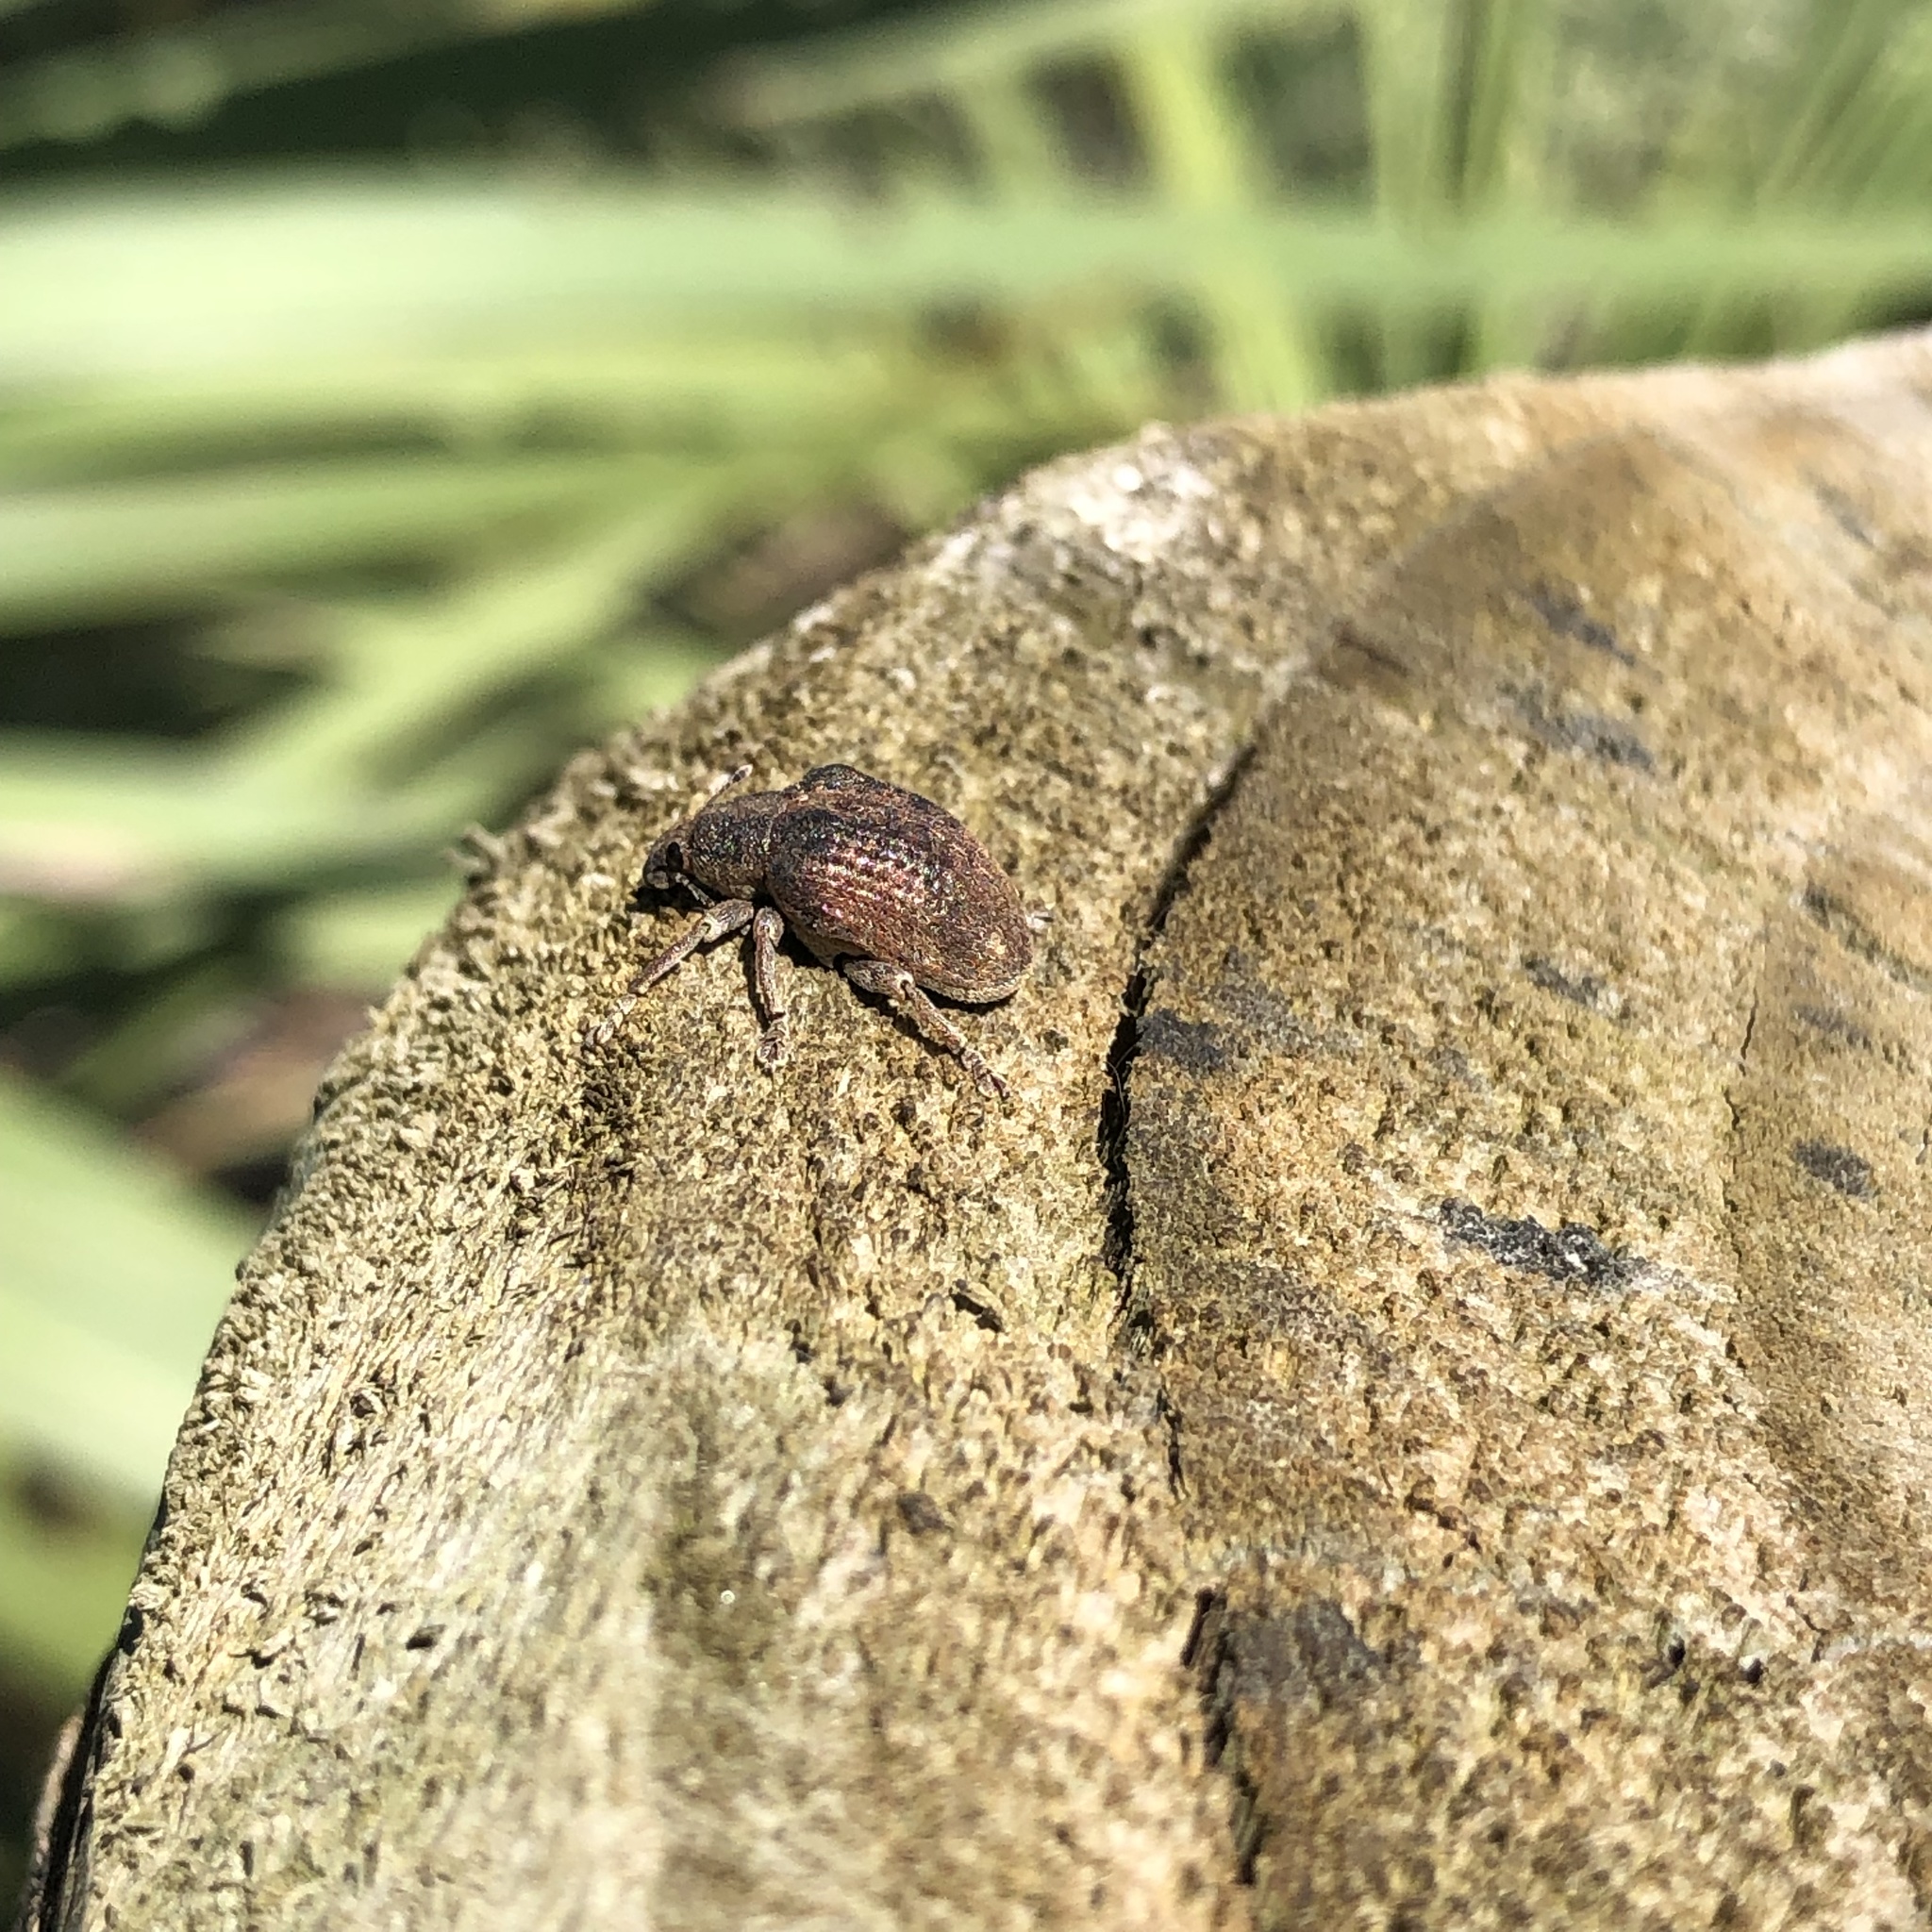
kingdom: Animalia
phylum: Arthropoda
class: Insecta
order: Coleoptera
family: Curculionidae
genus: Gonipterus
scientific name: Gonipterus platensis
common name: Eucalyptus snout beetle
